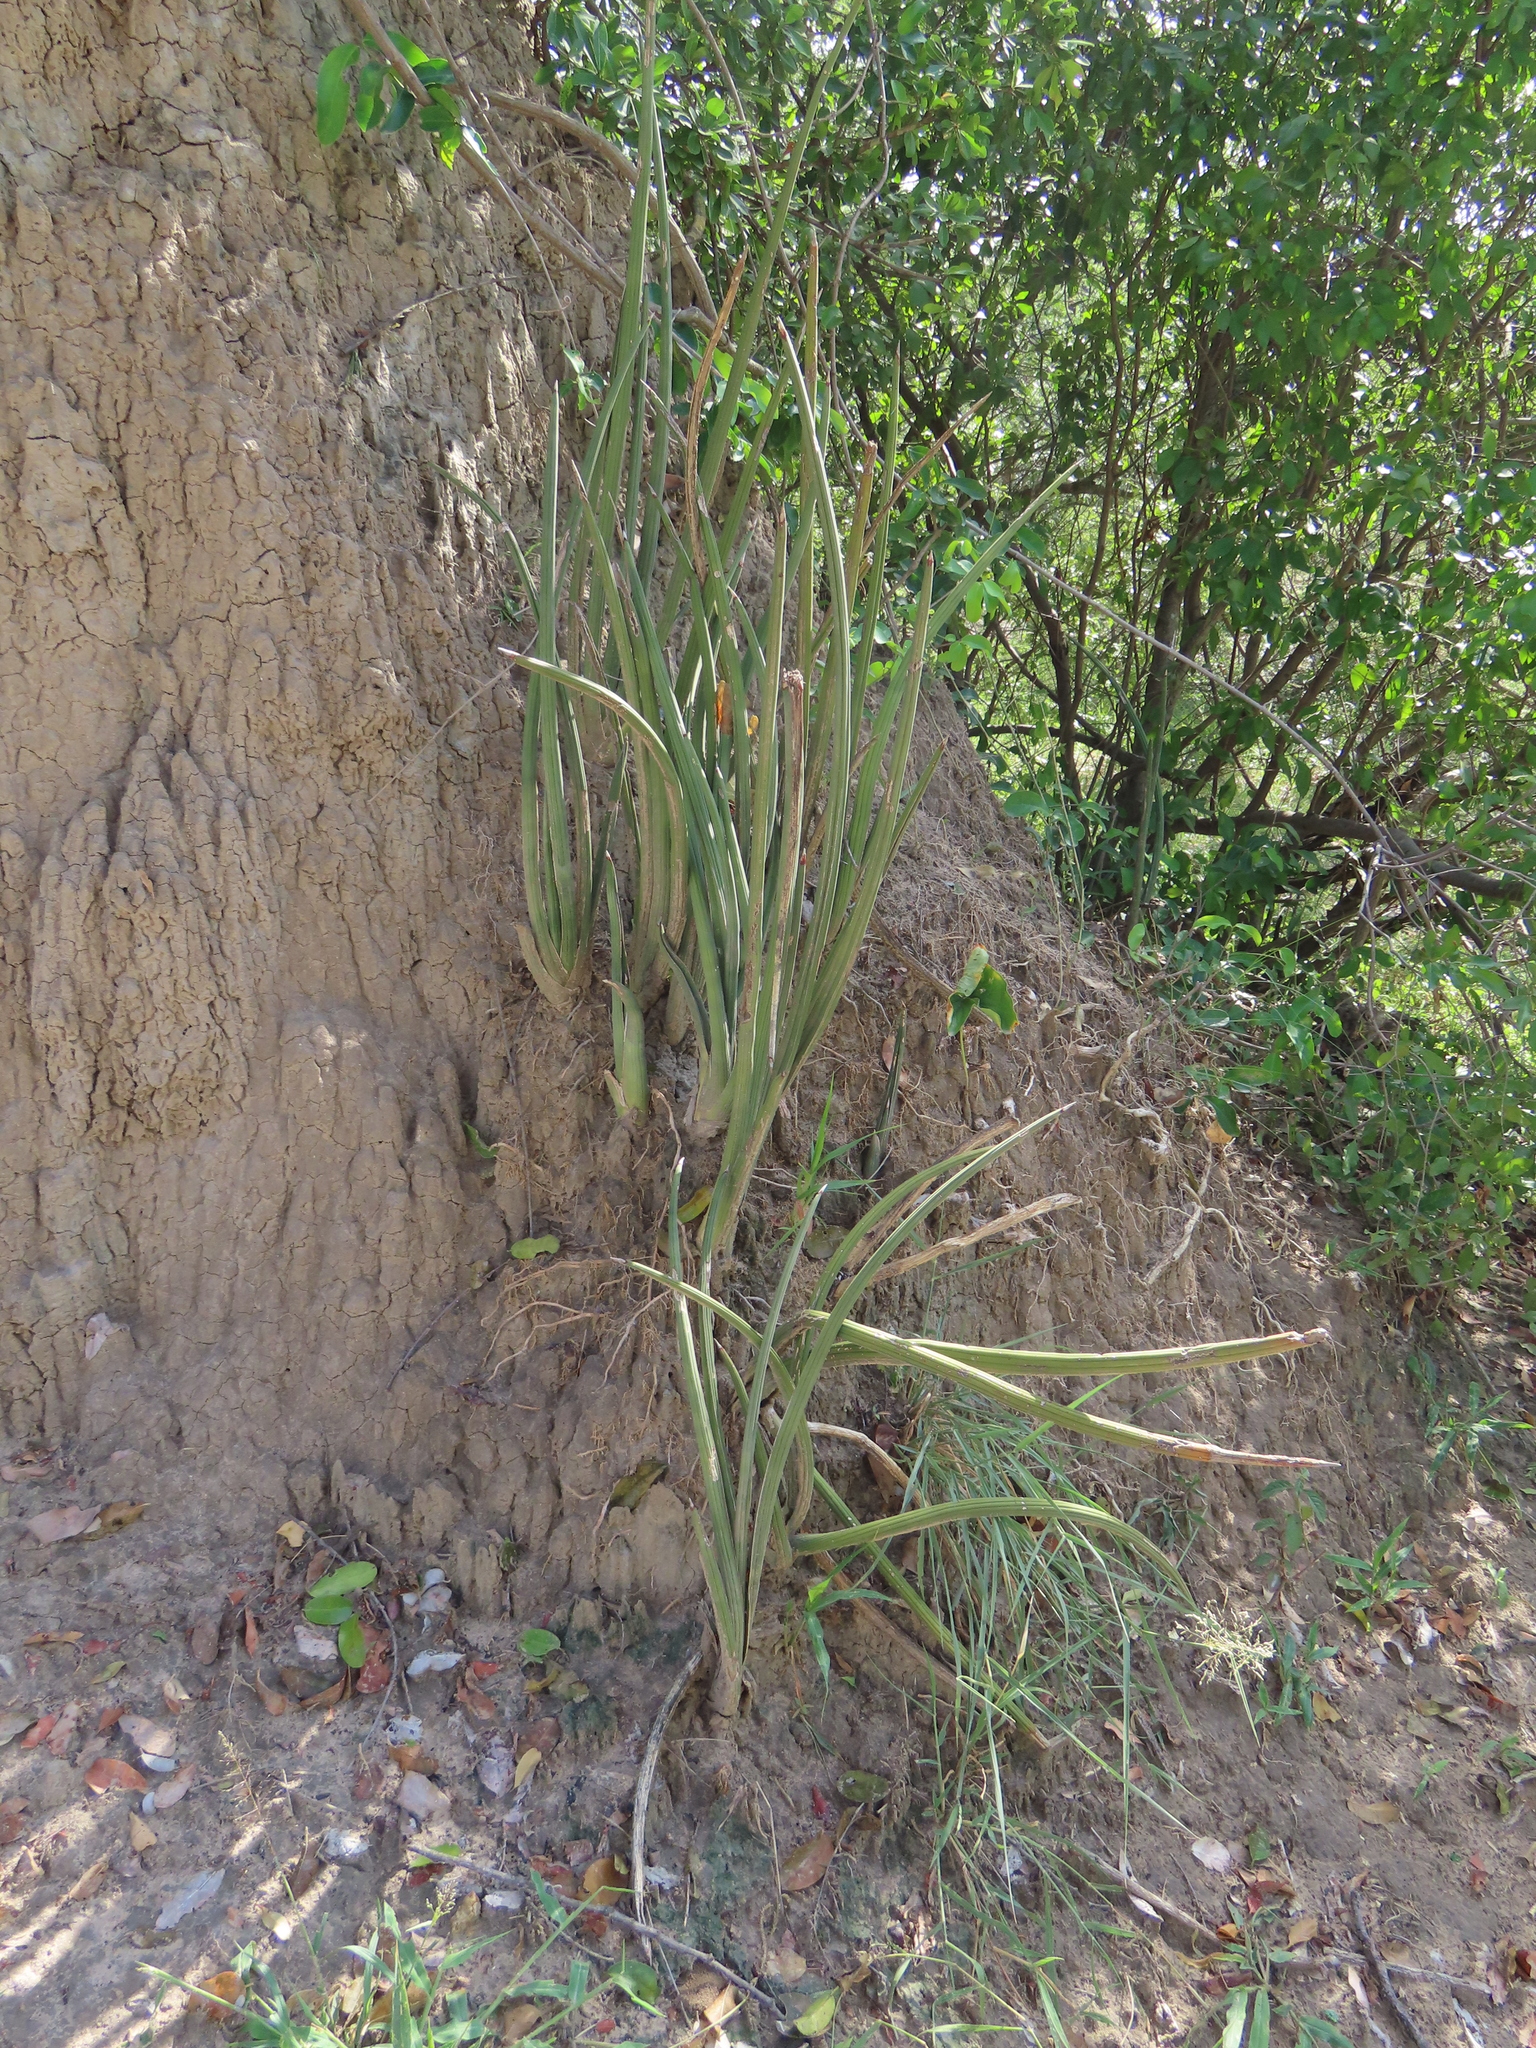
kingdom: Plantae
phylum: Tracheophyta
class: Liliopsida
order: Asparagales
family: Asparagaceae
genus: Dracaena
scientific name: Dracaena pearsonii
